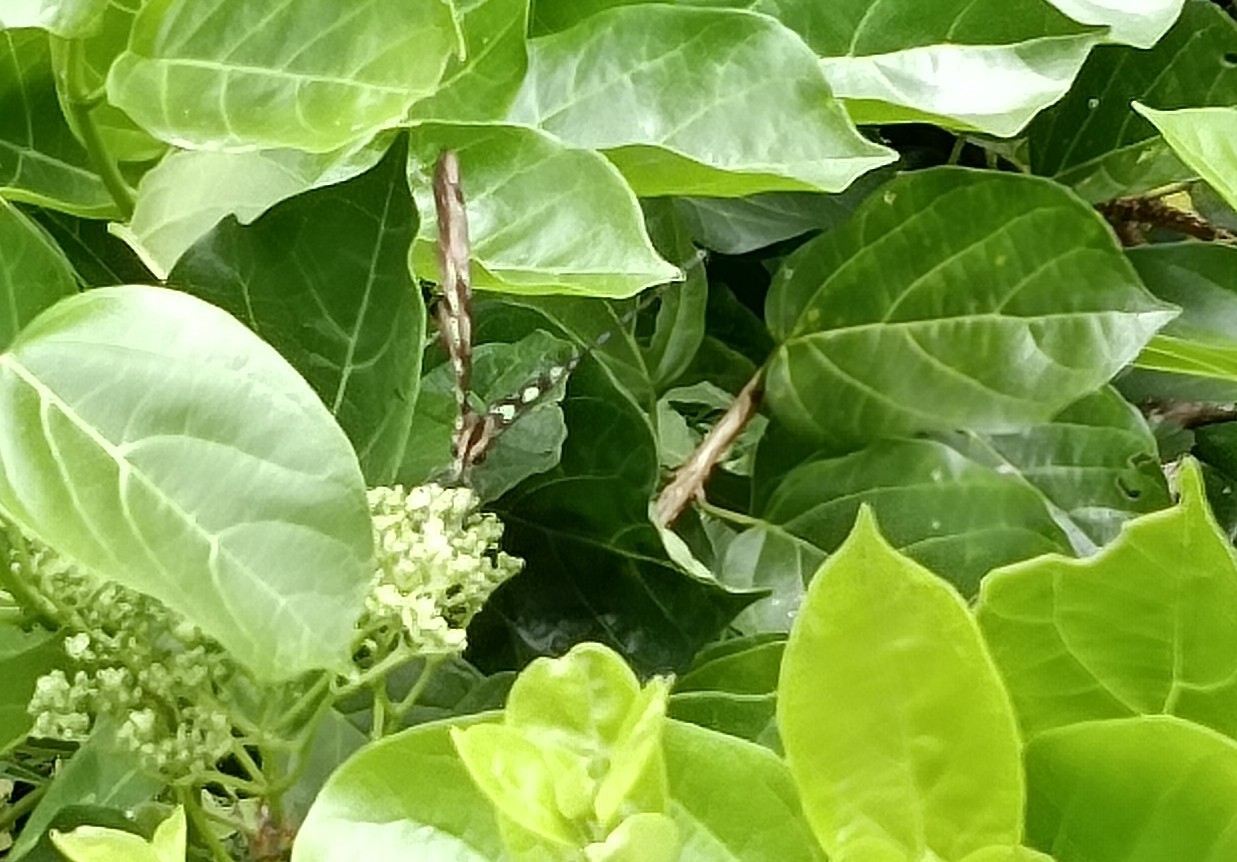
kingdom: Animalia
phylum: Arthropoda
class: Insecta
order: Lepidoptera
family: Papilionidae
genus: Graphium
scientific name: Graphium agamemnon
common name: Tailed jay
